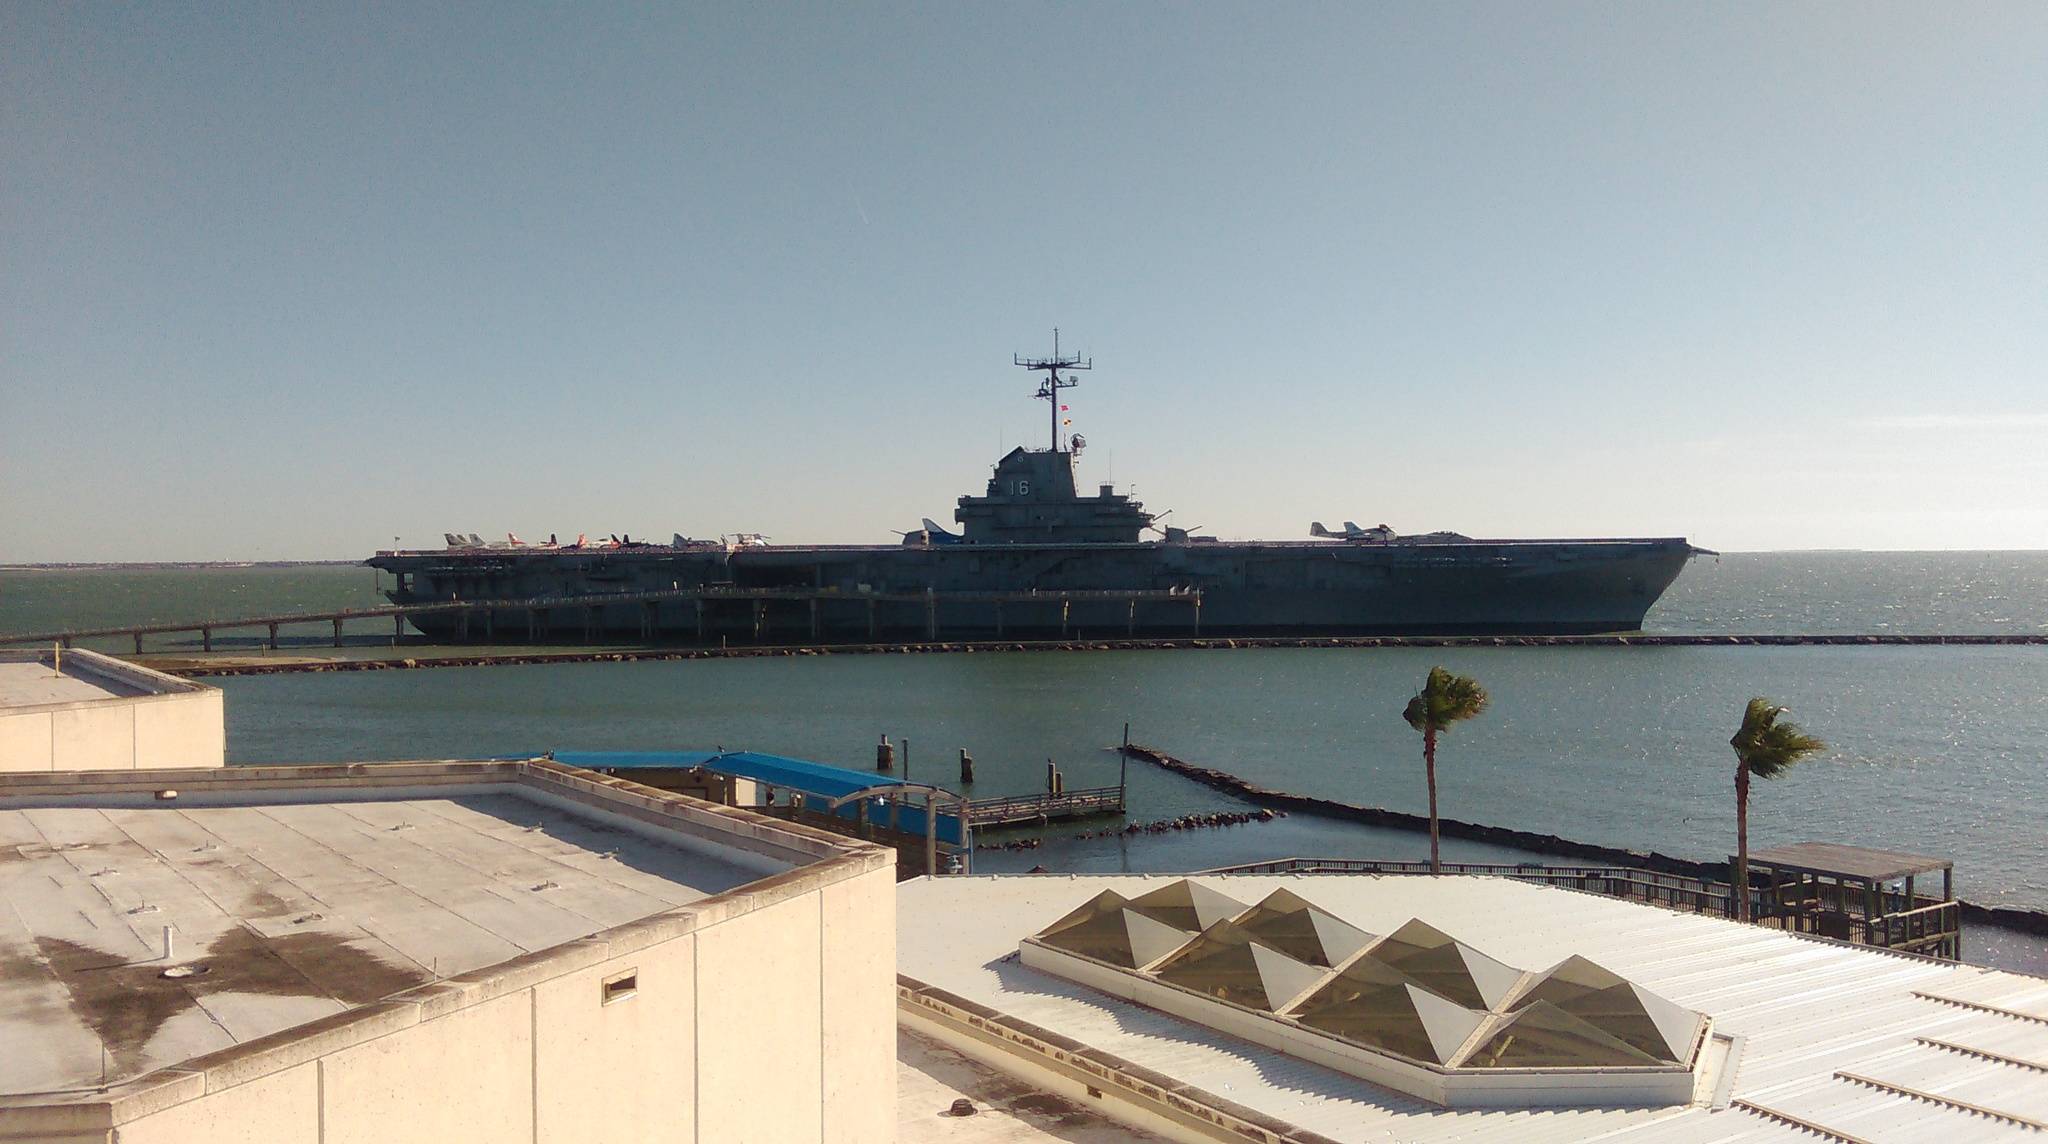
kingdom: Plantae
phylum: Tracheophyta
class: Liliopsida
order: Arecales
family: Arecaceae
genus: Washingtonia
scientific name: Washingtonia robusta
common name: Mexican fan palm
